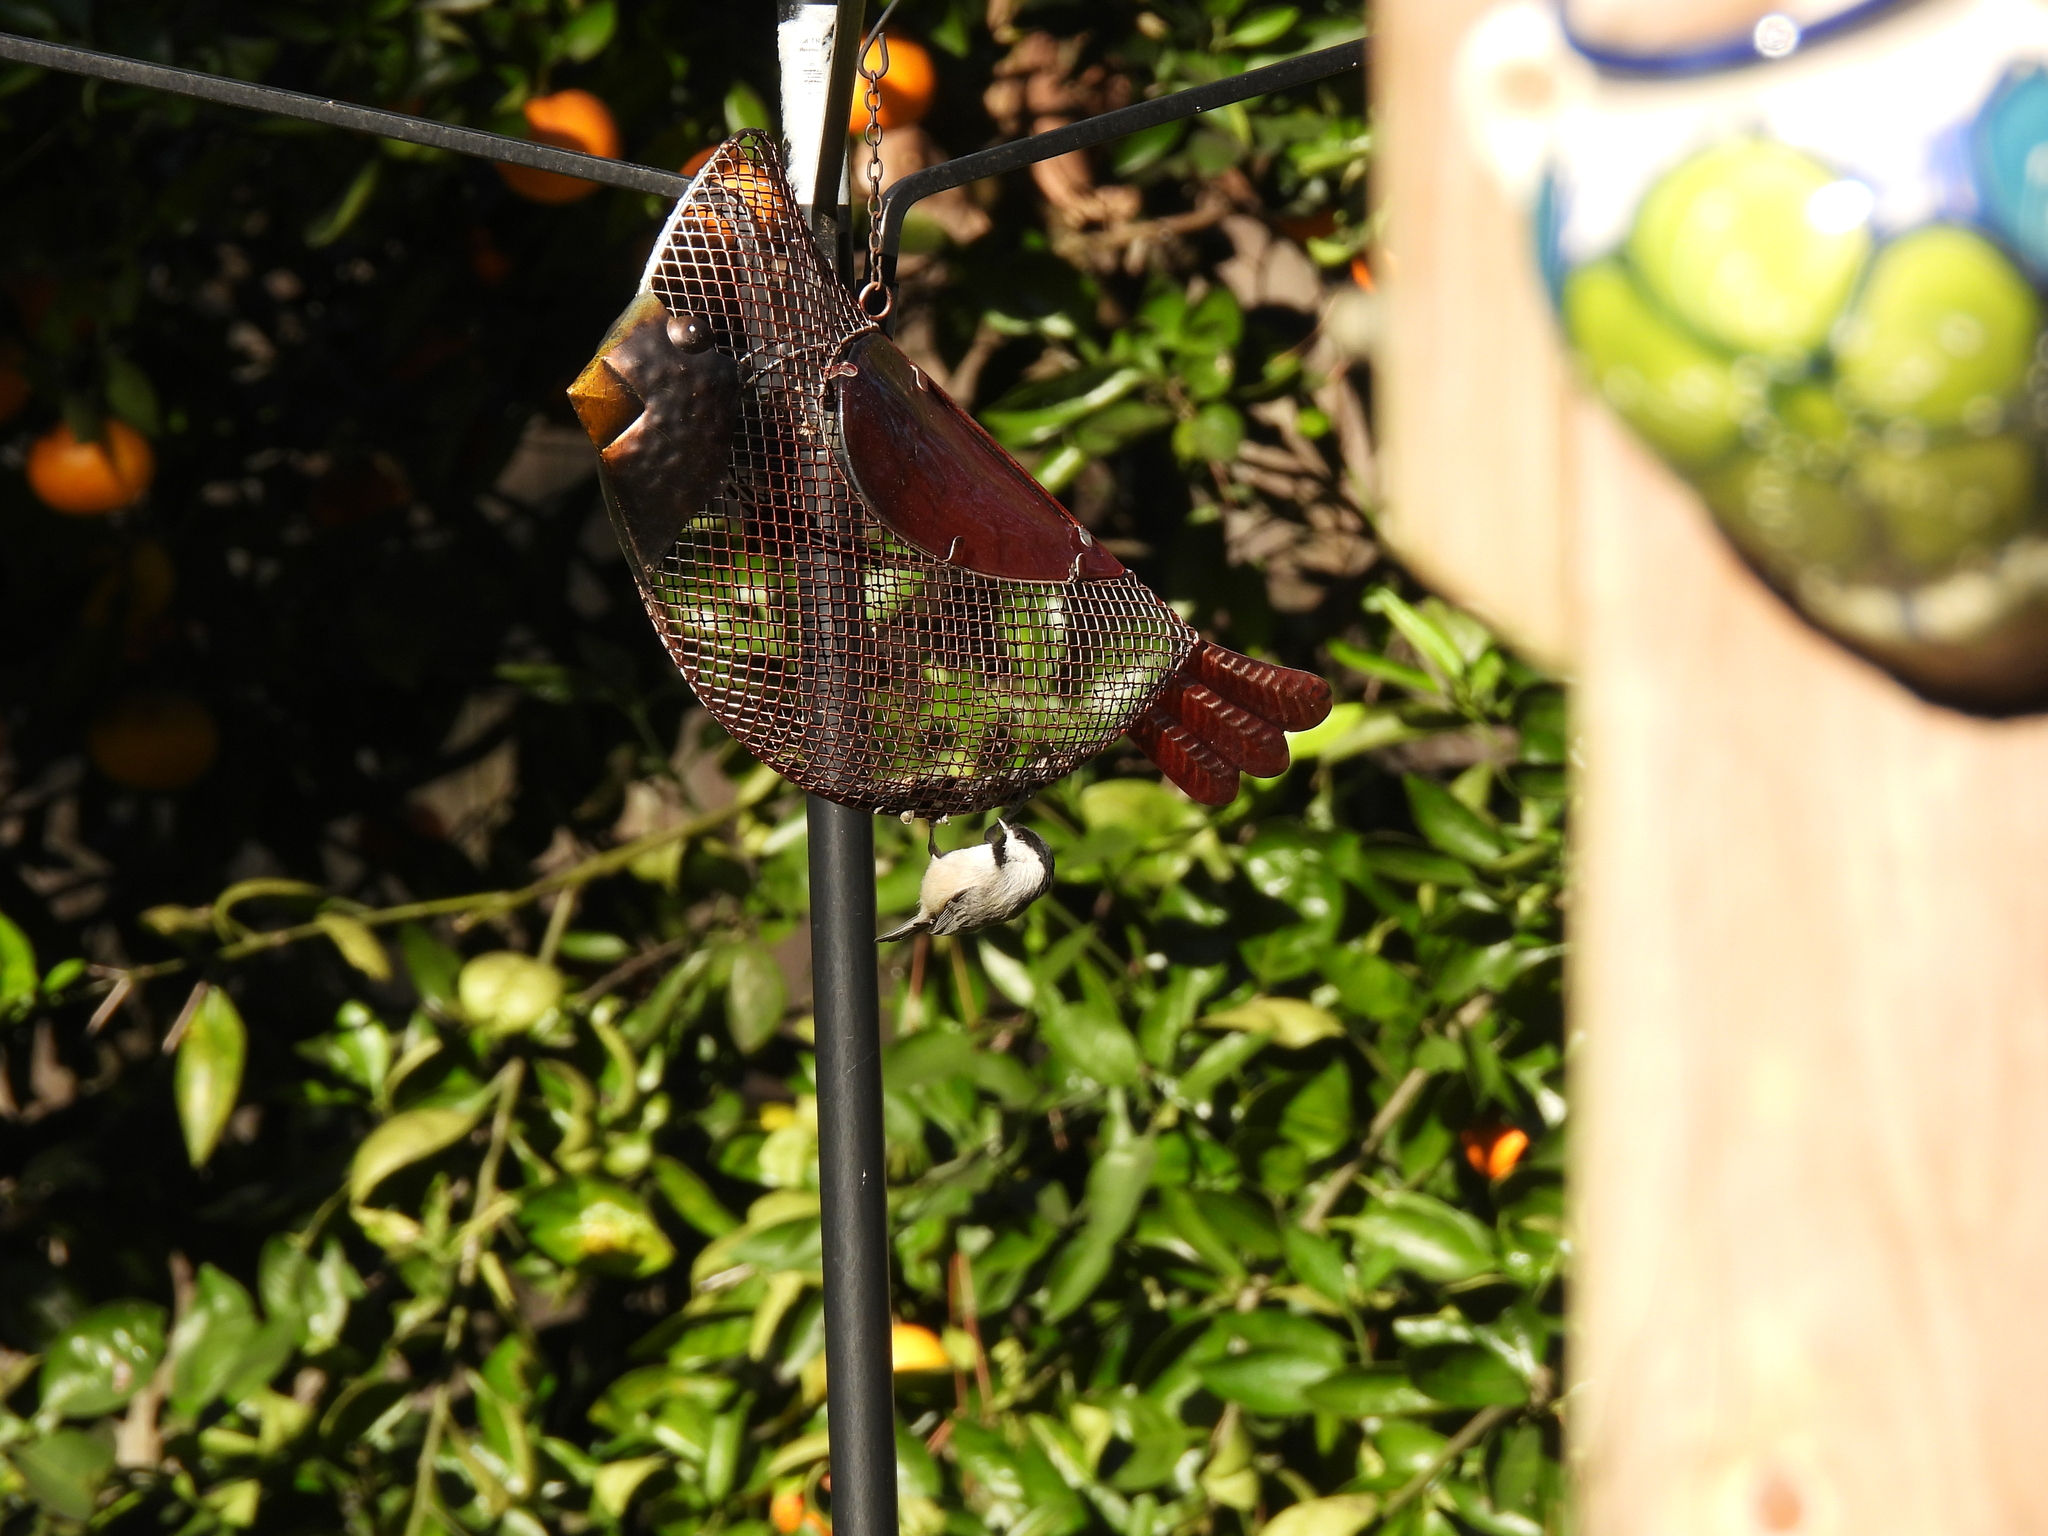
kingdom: Animalia
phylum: Chordata
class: Aves
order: Passeriformes
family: Paridae
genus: Poecile
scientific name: Poecile carolinensis
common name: Carolina chickadee
